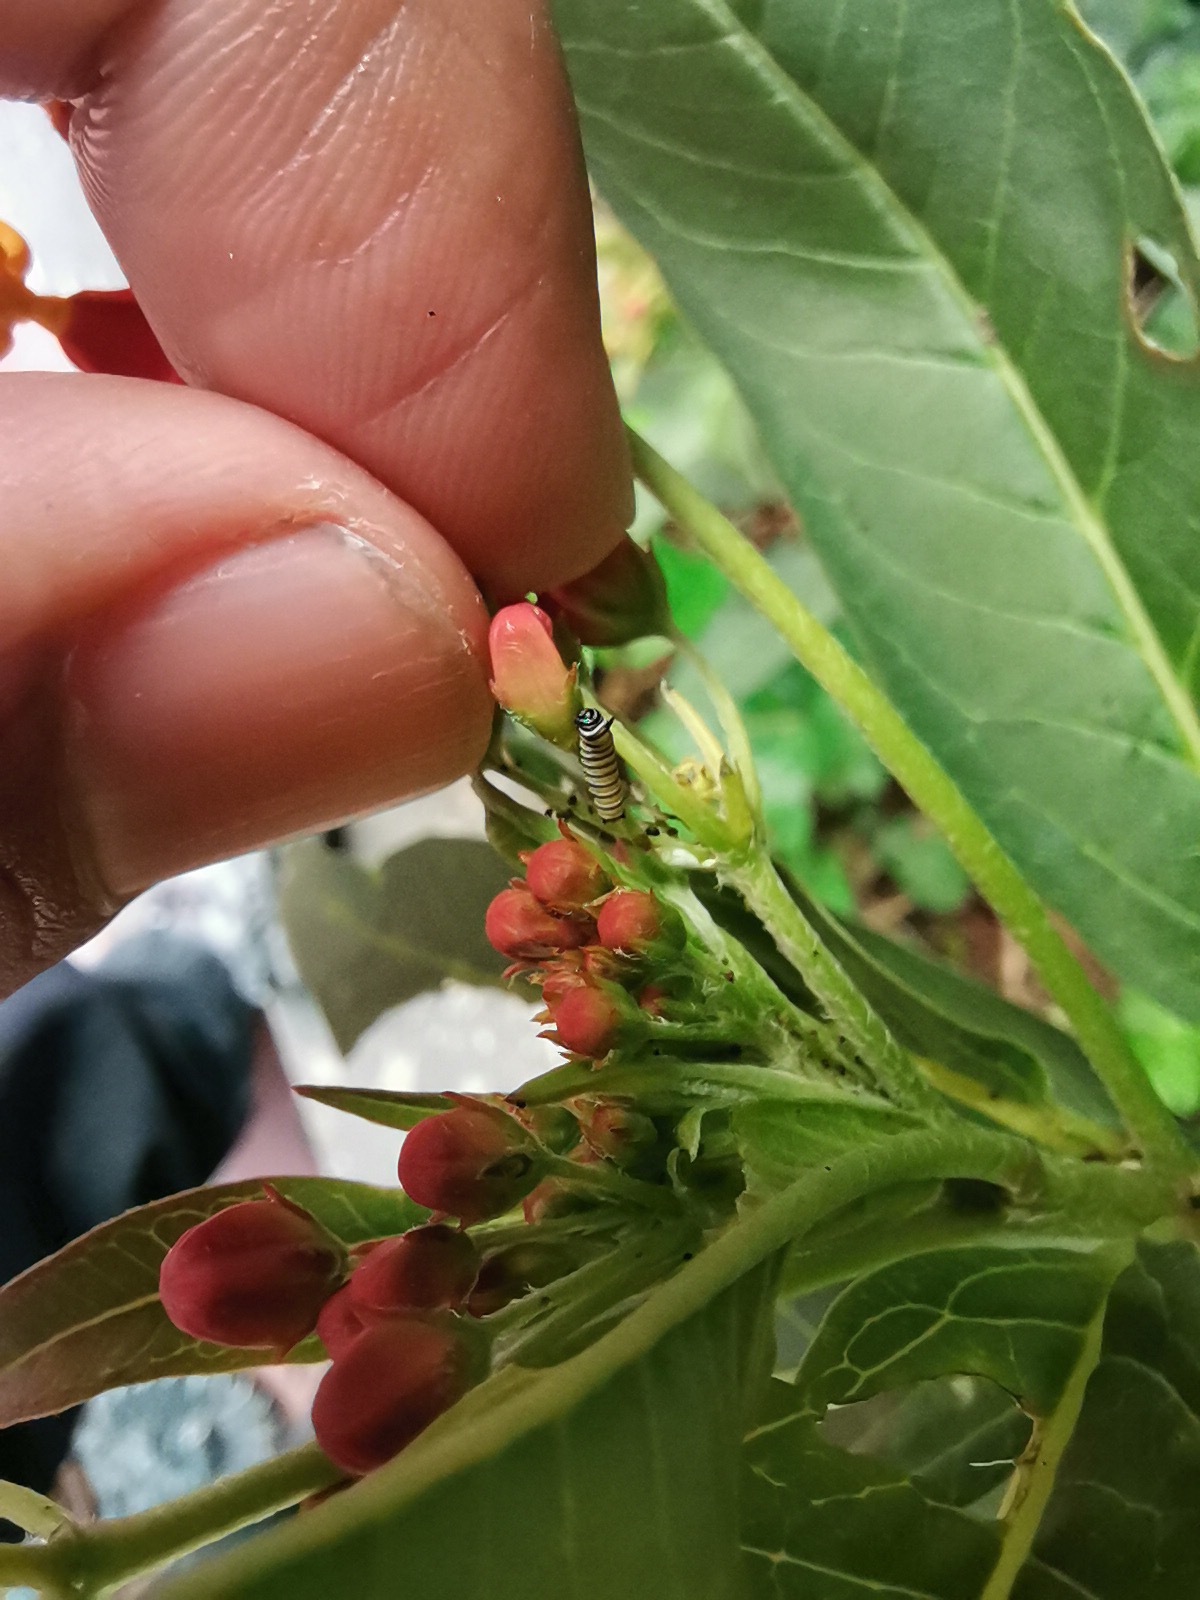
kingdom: Animalia
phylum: Arthropoda
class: Insecta
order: Lepidoptera
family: Nymphalidae
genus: Danaus
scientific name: Danaus plexippus
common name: Monarch
